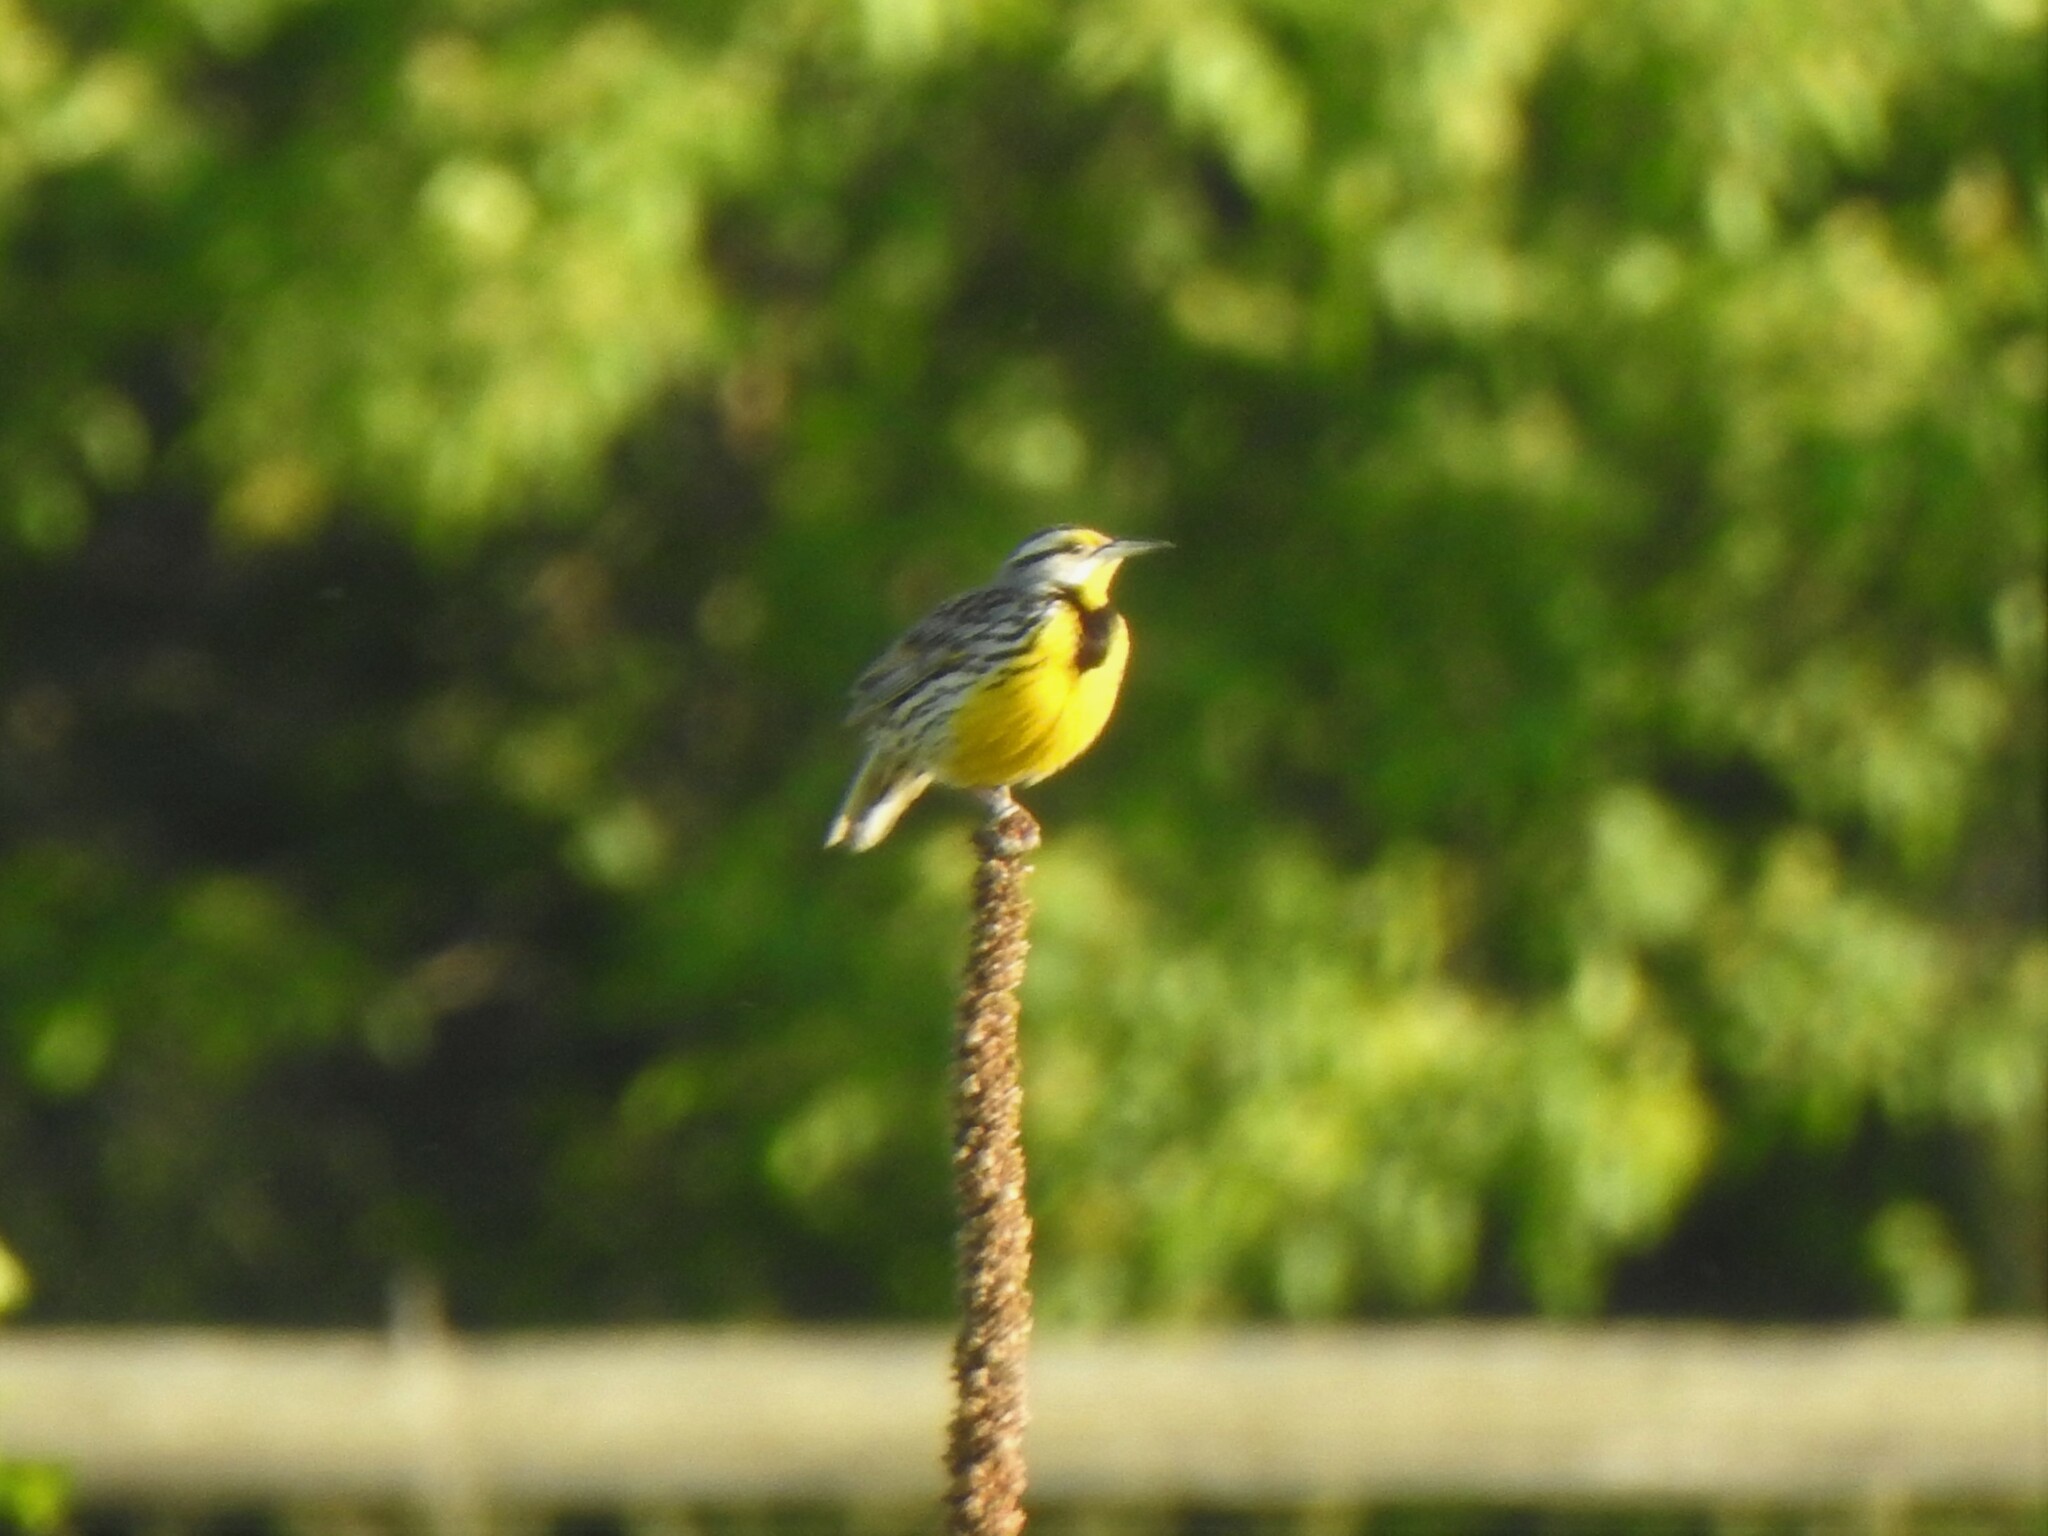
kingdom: Animalia
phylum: Chordata
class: Aves
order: Passeriformes
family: Icteridae
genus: Sturnella
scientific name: Sturnella magna
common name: Eastern meadowlark
